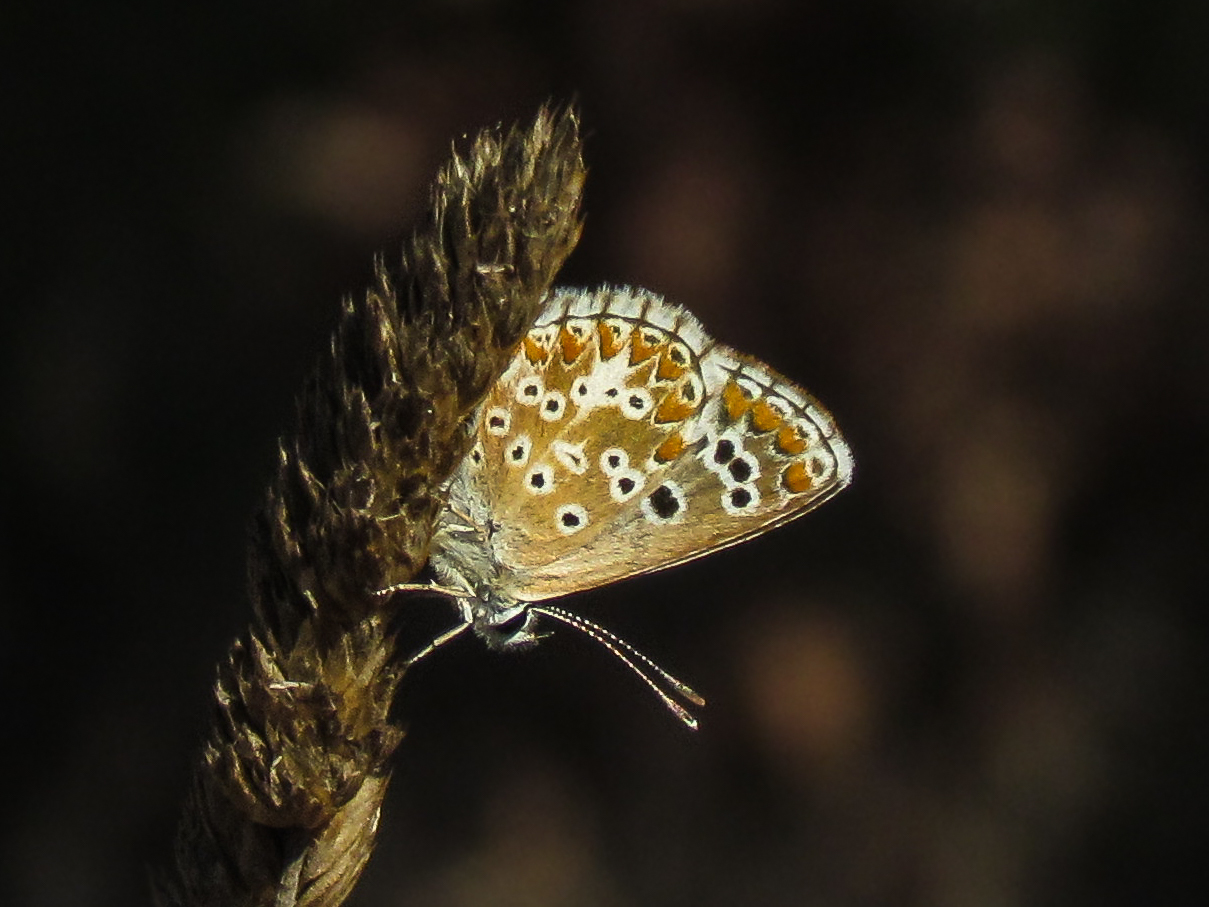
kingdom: Animalia
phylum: Arthropoda
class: Insecta
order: Lepidoptera
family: Lycaenidae
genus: Aricia
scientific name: Aricia cramera
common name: Eschscholtz´s brown  argus
